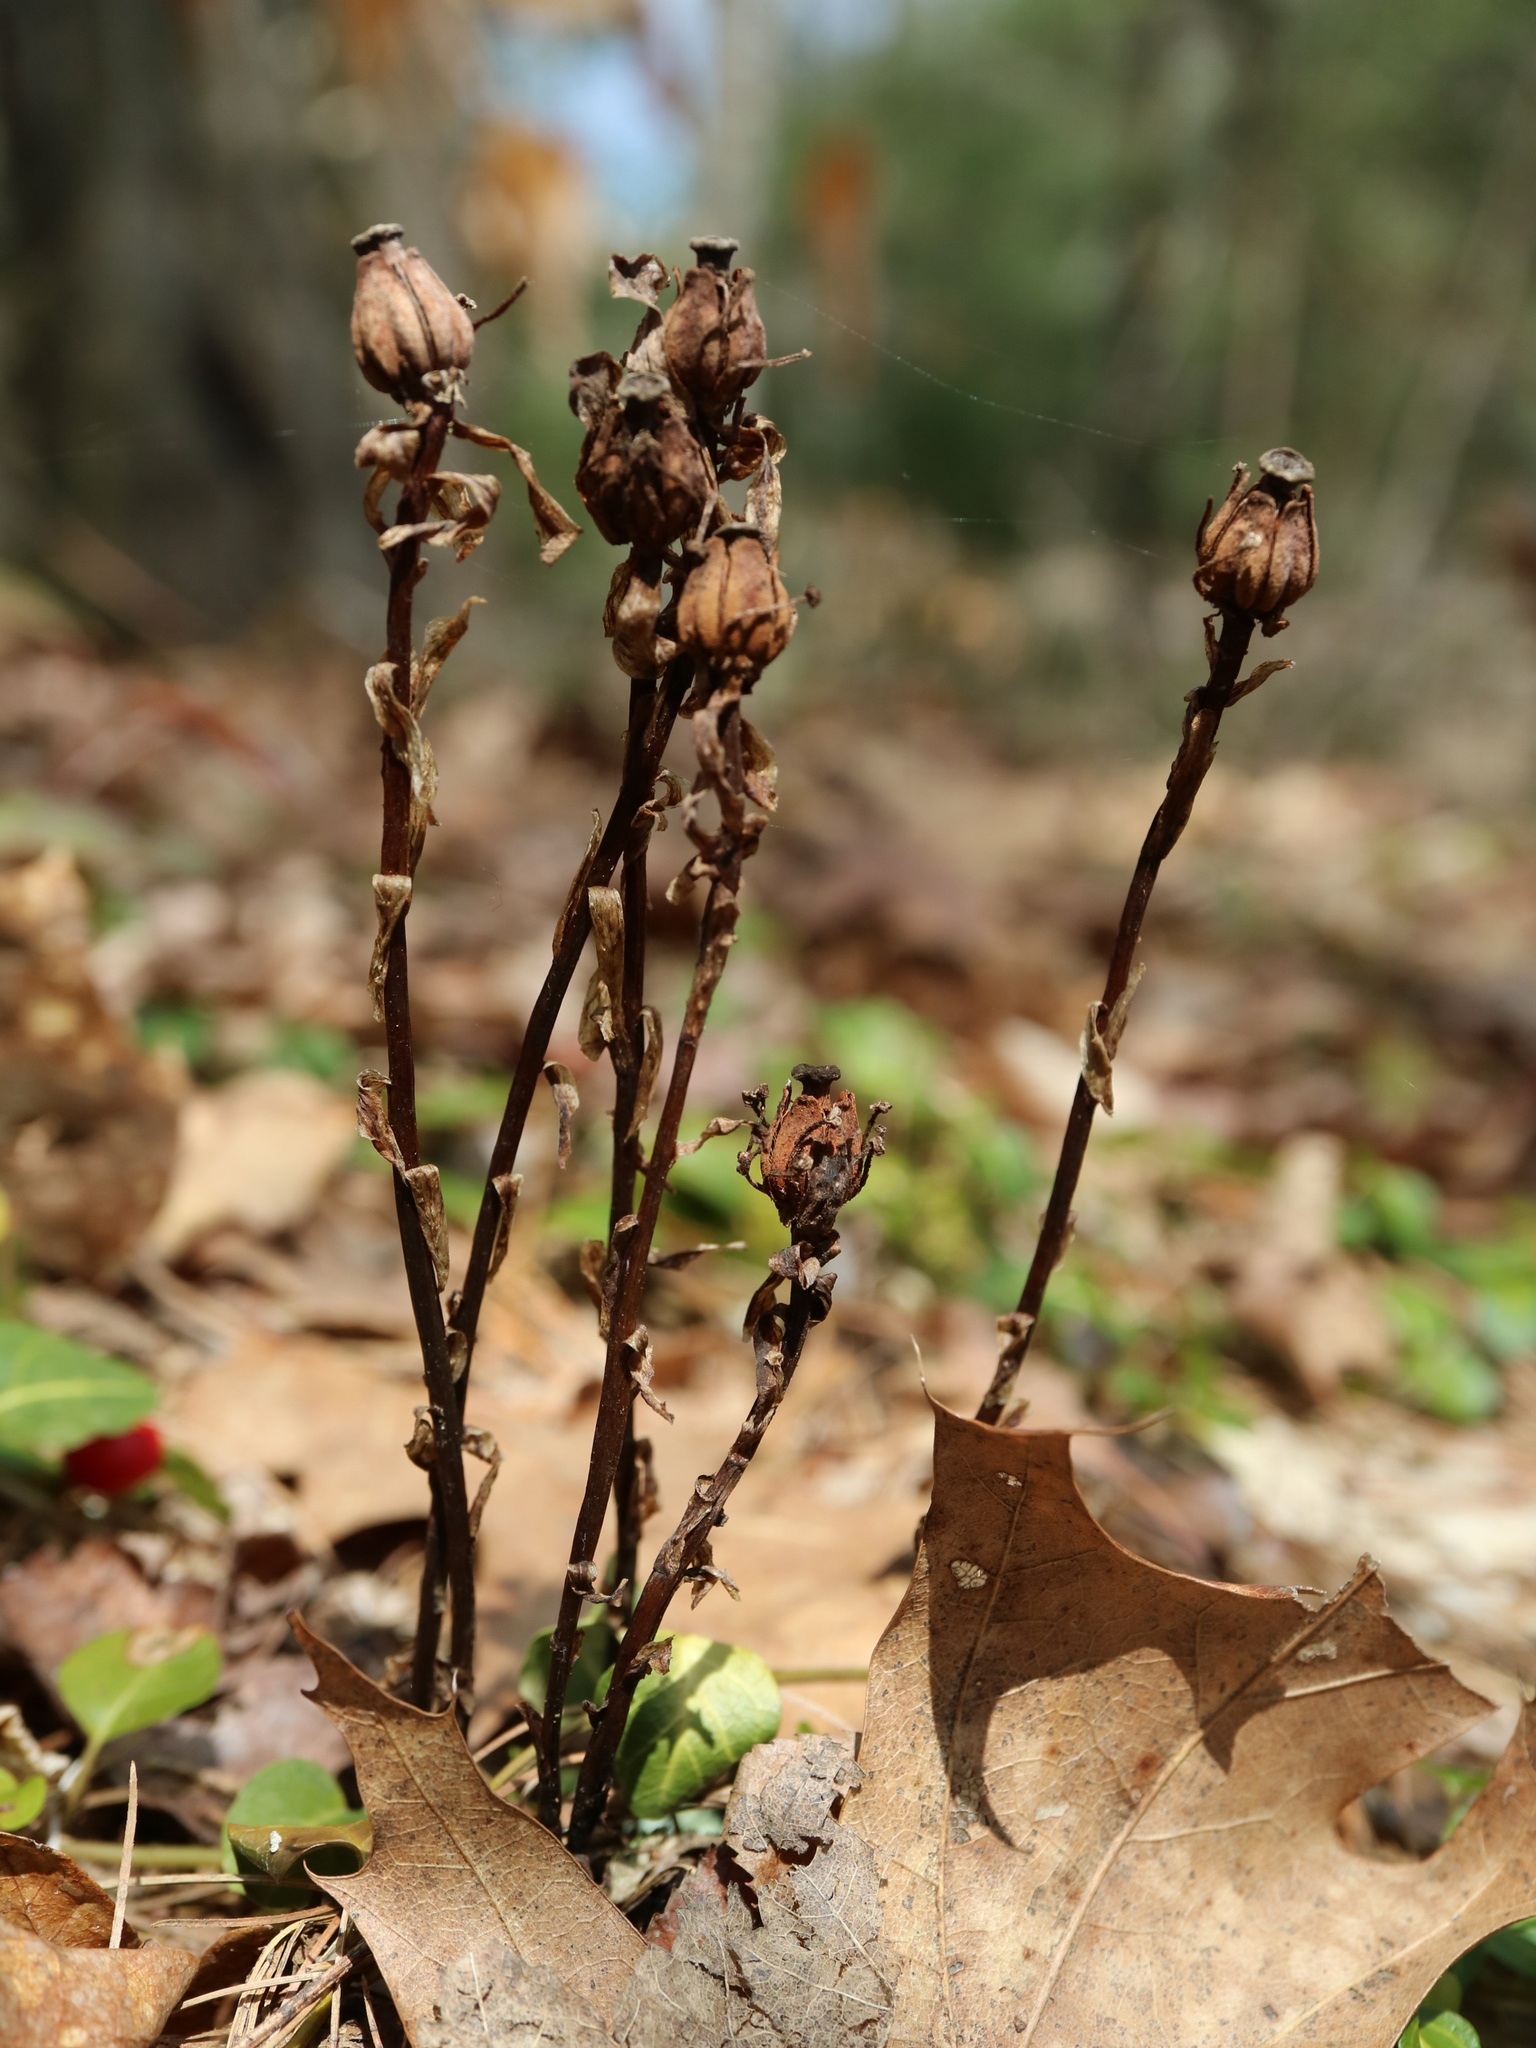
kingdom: Plantae
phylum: Tracheophyta
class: Magnoliopsida
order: Ericales
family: Ericaceae
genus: Monotropa
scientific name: Monotropa uniflora
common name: Convulsion root
